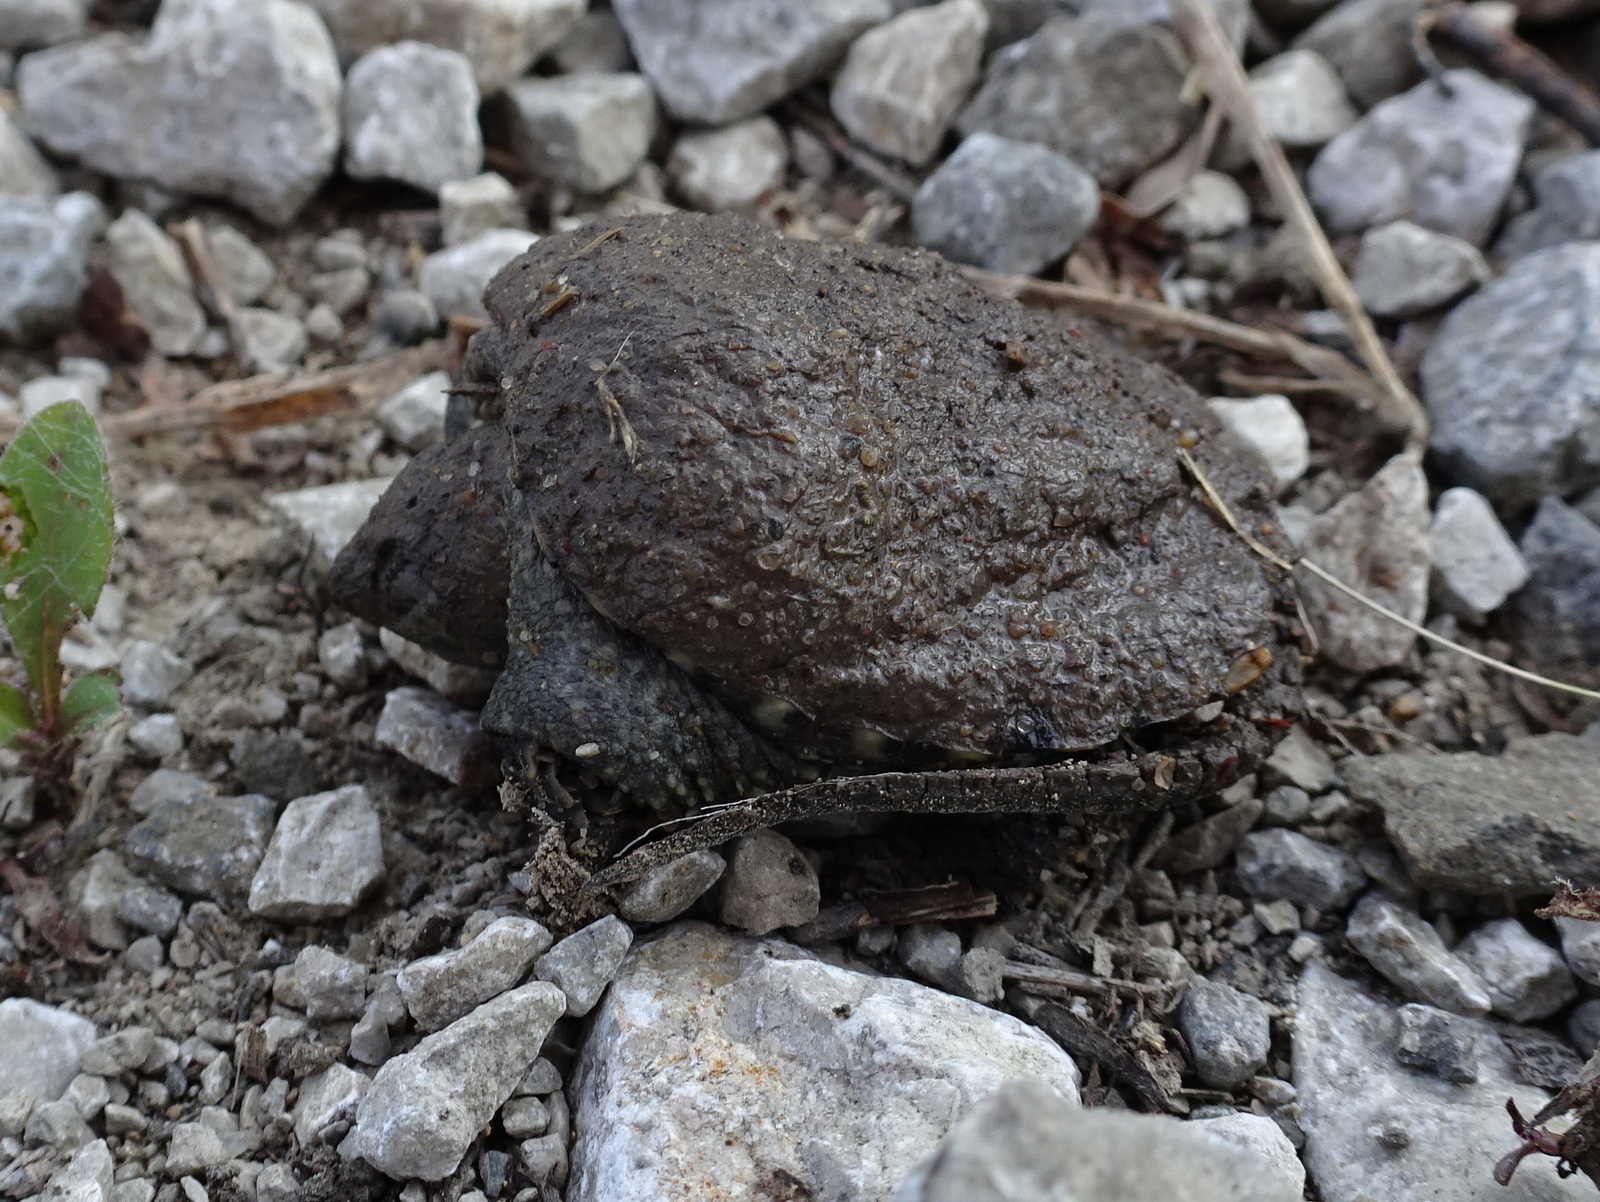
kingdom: Animalia
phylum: Chordata
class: Testudines
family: Chelydridae
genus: Chelydra
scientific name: Chelydra serpentina
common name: Common snapping turtle
